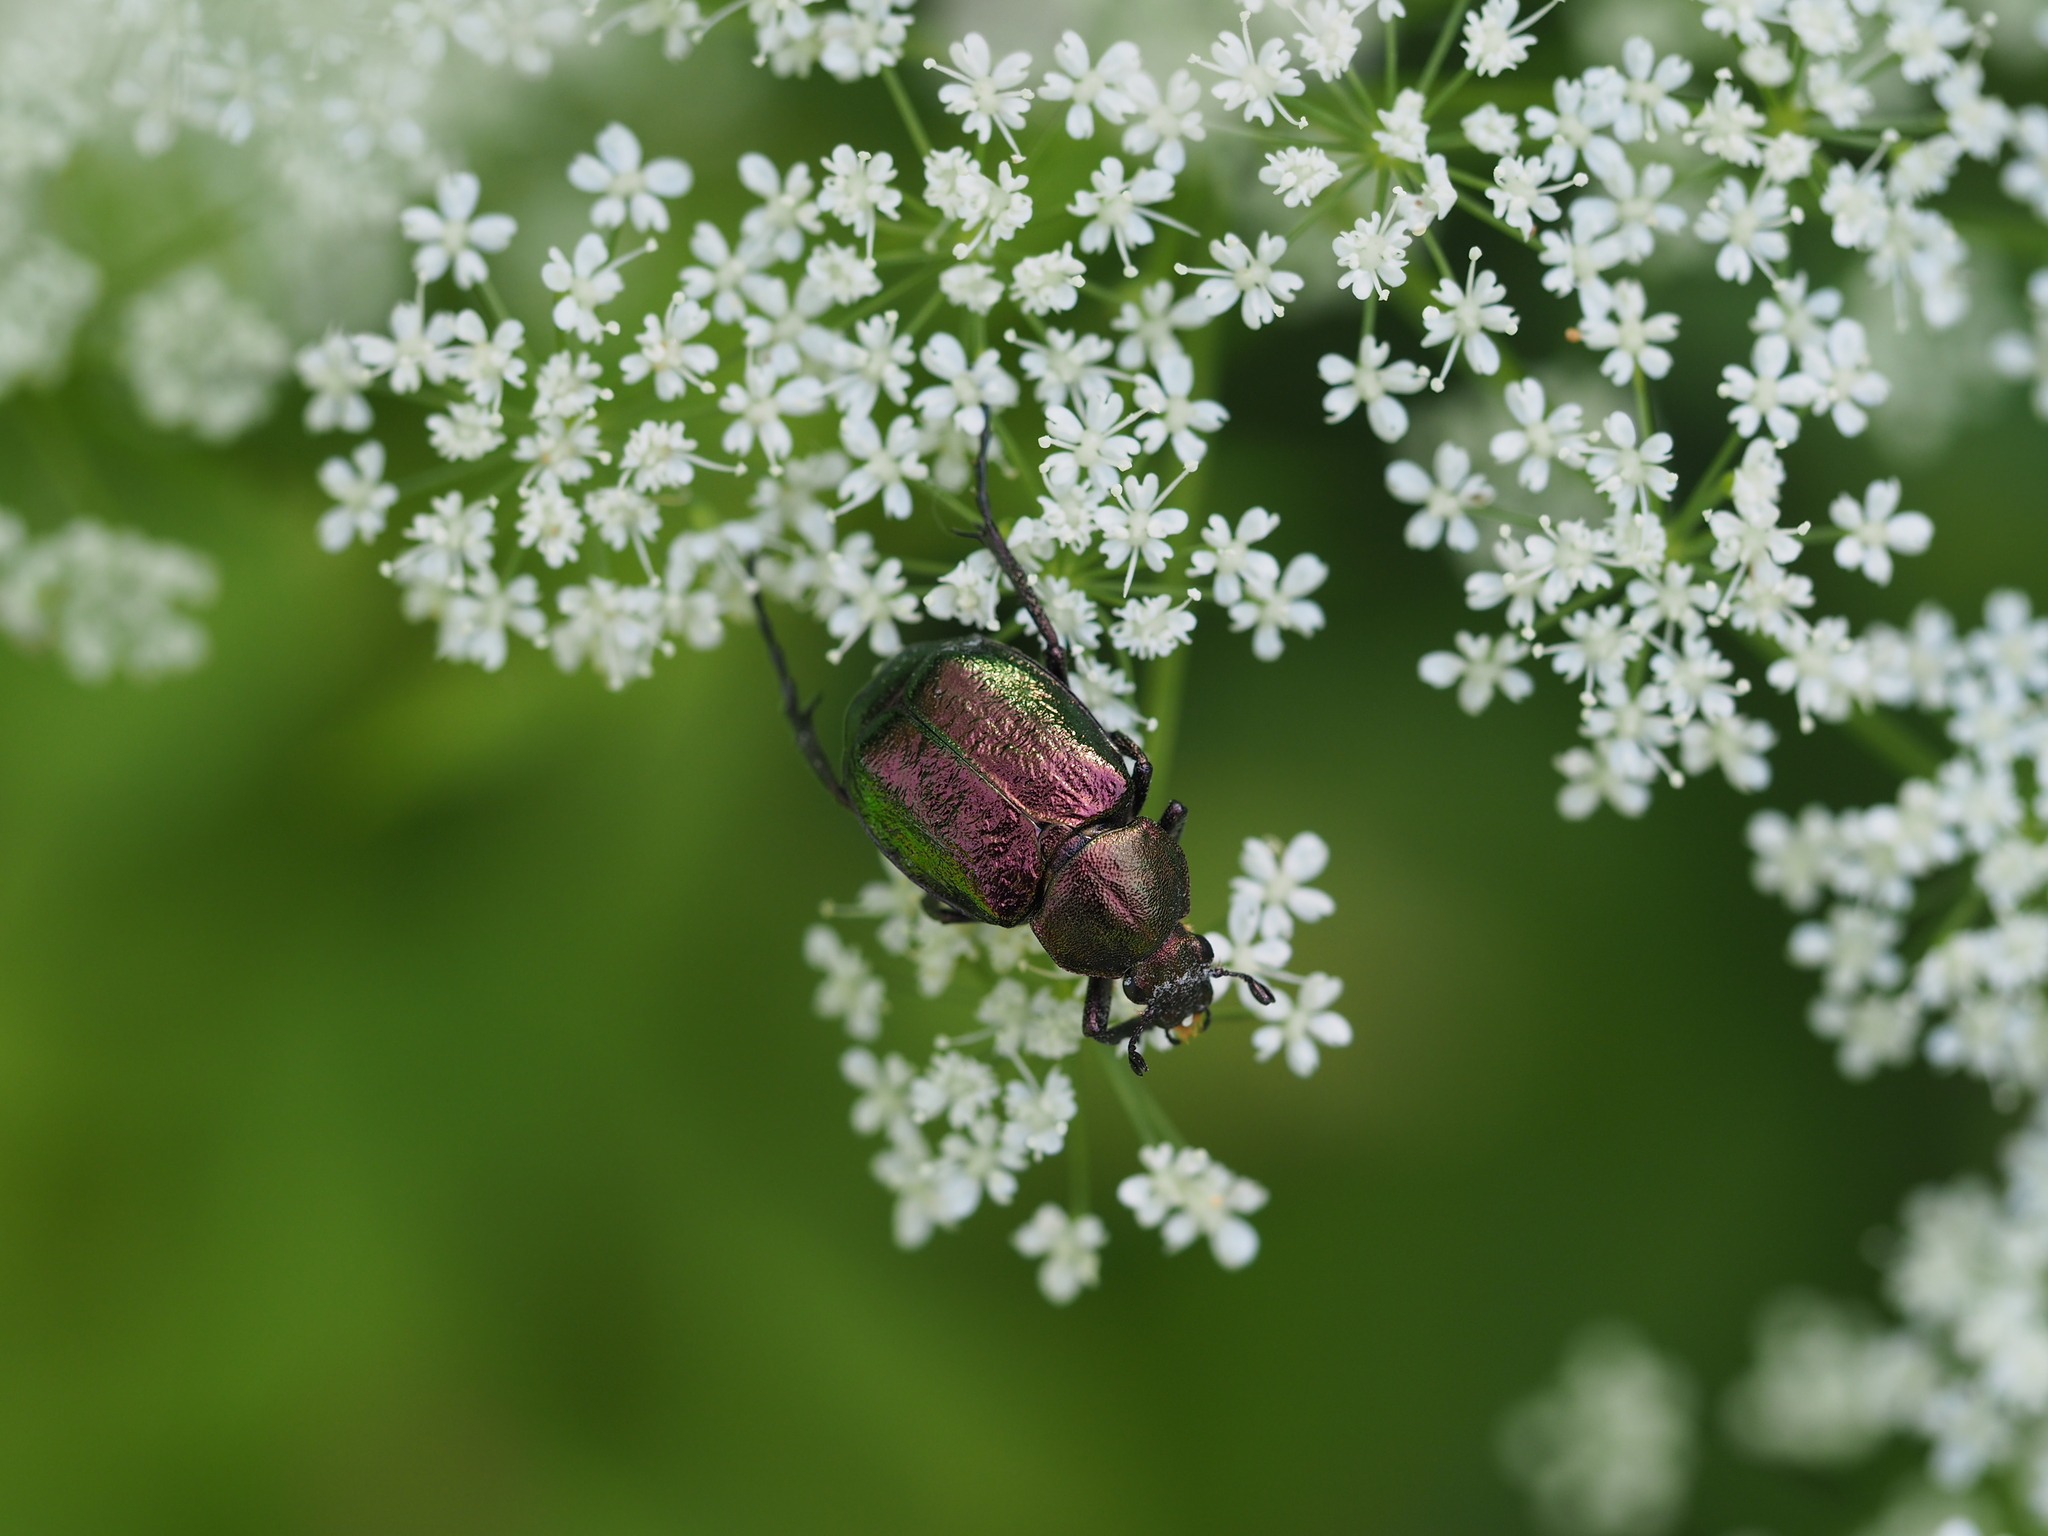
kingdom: Animalia
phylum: Arthropoda
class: Insecta
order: Coleoptera
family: Scarabaeidae
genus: Gnorimus
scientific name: Gnorimus nobilis
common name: Noble chafer
